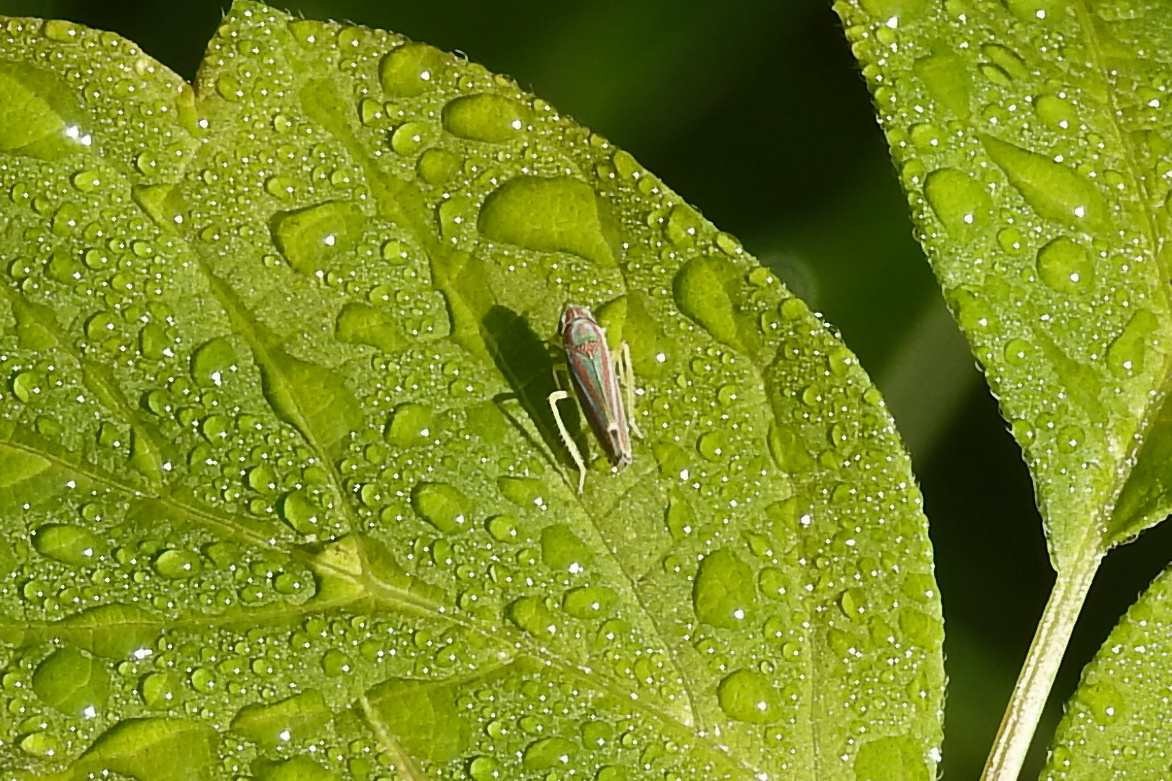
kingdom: Animalia
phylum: Arthropoda
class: Insecta
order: Hemiptera
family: Cicadellidae
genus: Graphocephala
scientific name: Graphocephala versuta
